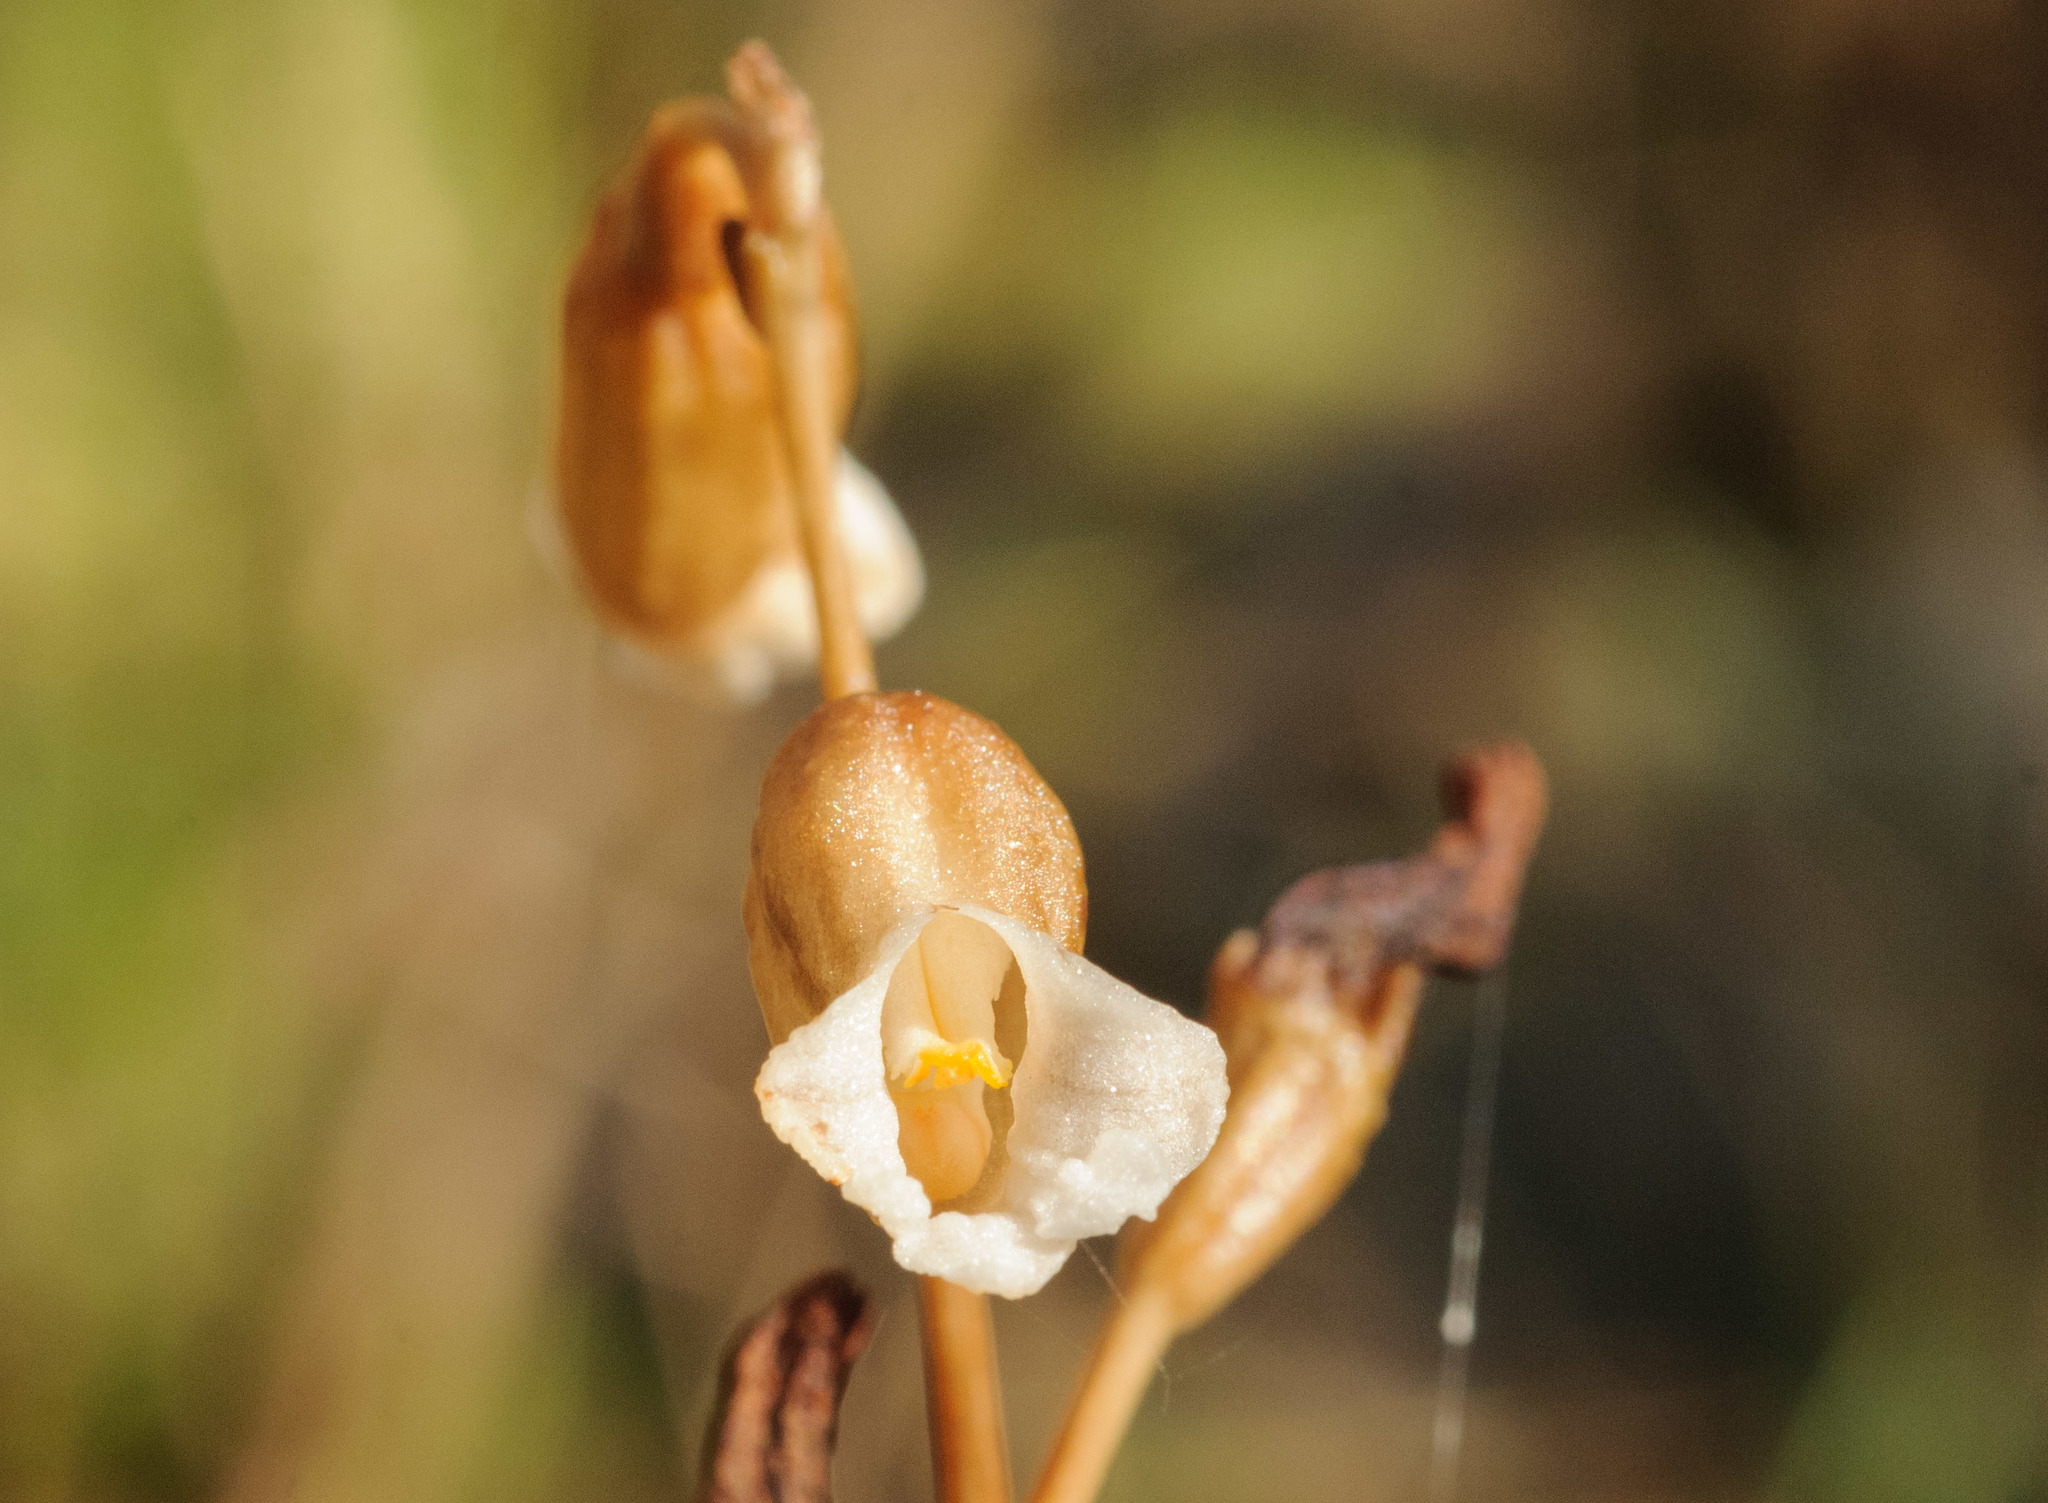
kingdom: Plantae
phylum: Tracheophyta
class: Liliopsida
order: Asparagales
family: Orchidaceae
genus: Gastrodia
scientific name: Gastrodia sesamoides
